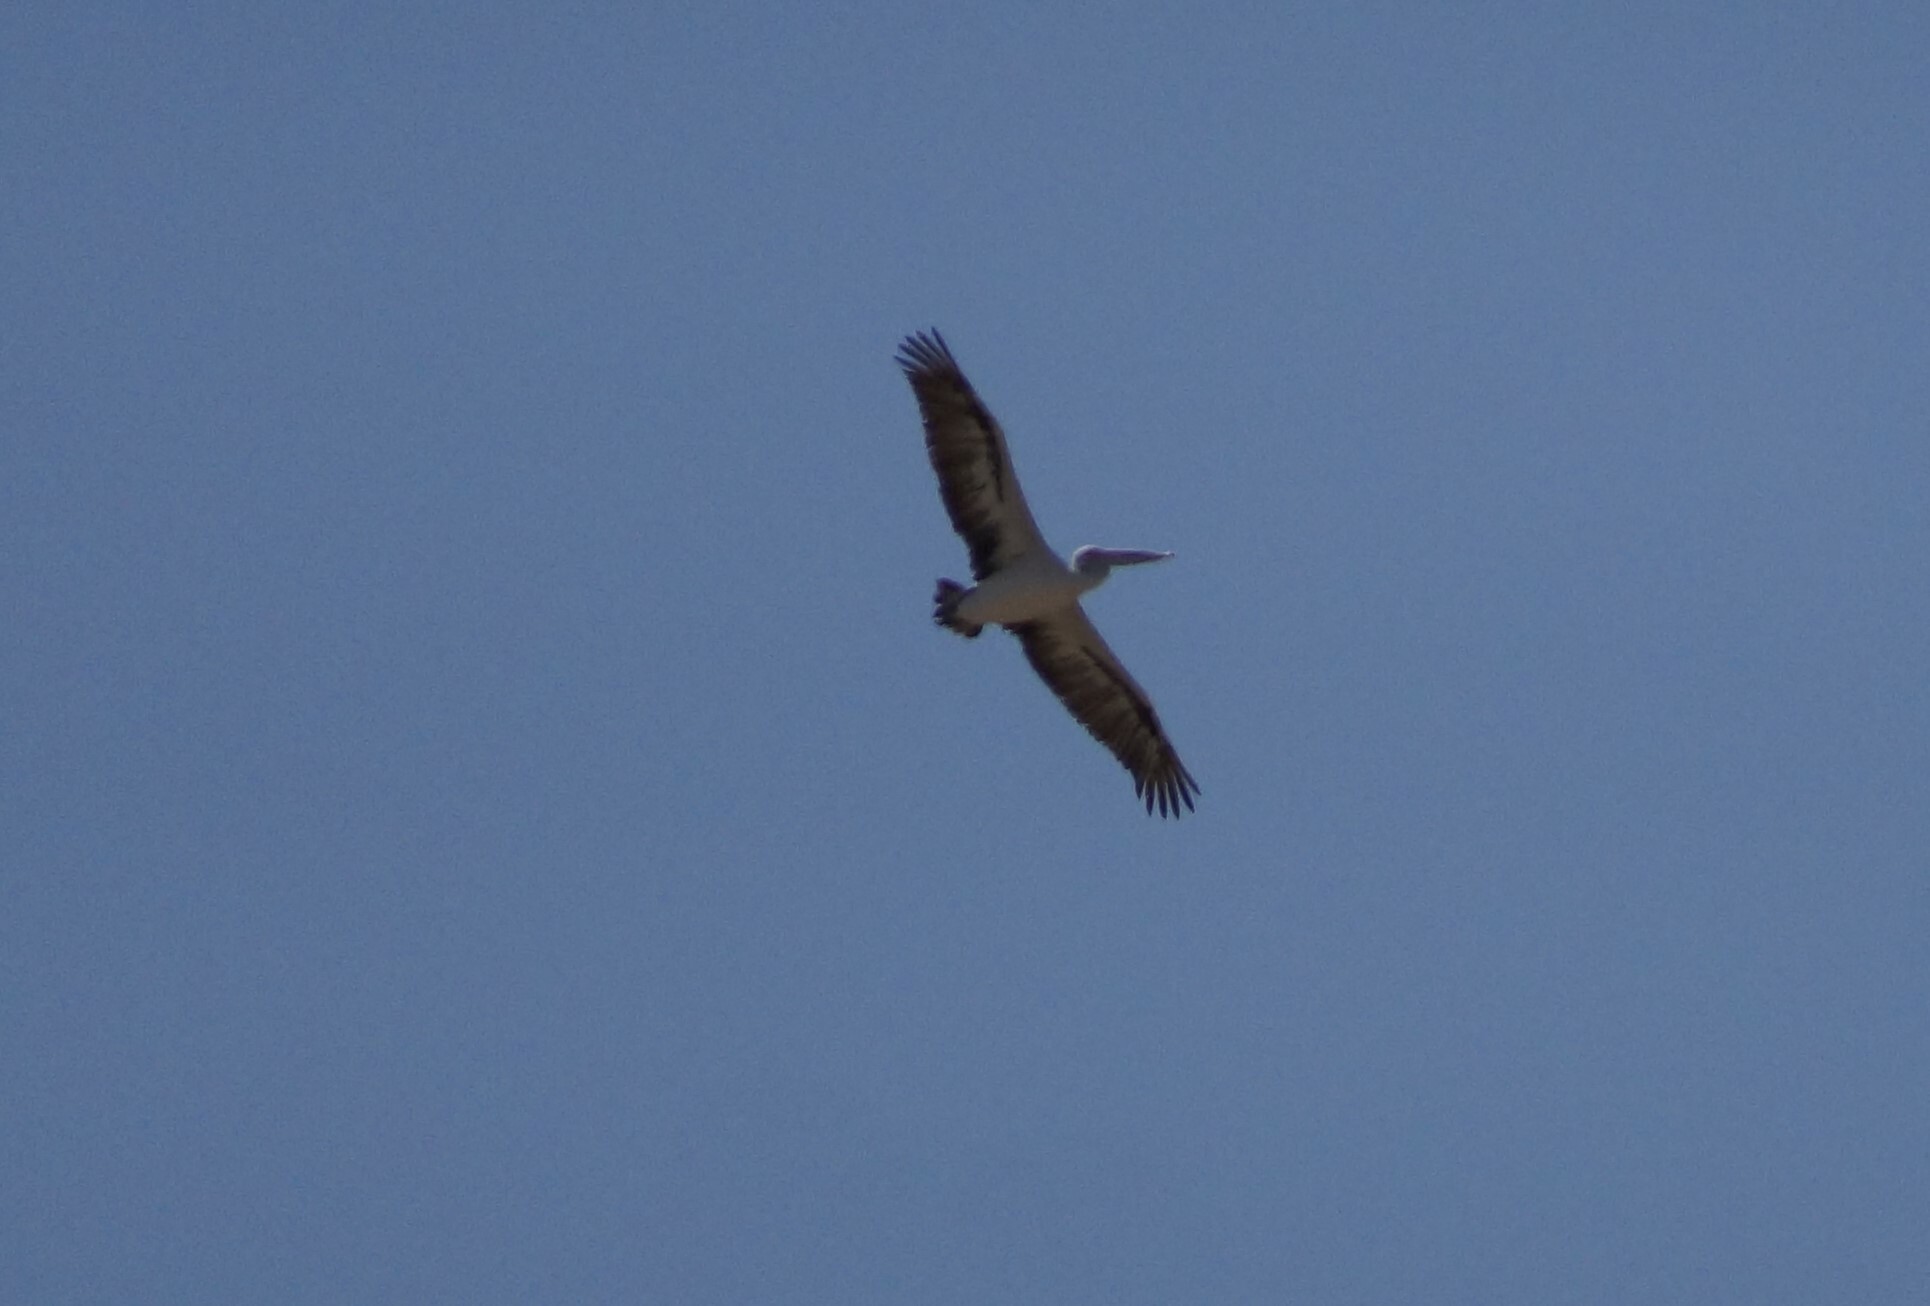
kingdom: Animalia
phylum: Chordata
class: Aves
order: Pelecaniformes
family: Pelecanidae
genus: Pelecanus
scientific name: Pelecanus conspicillatus
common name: Australian pelican
